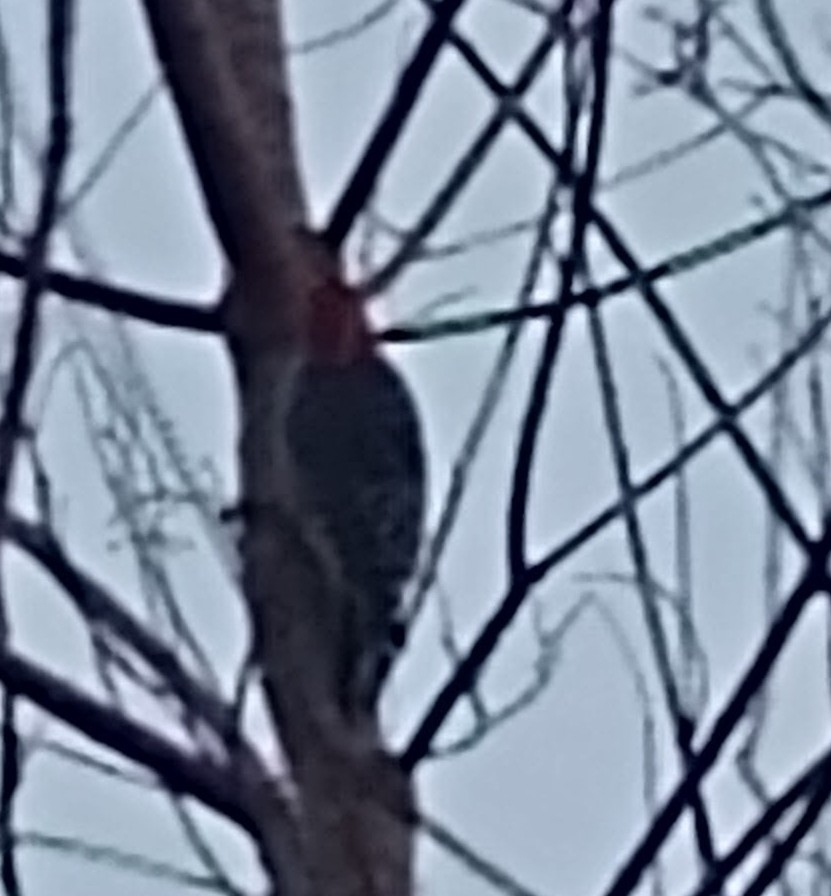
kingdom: Animalia
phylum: Chordata
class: Aves
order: Piciformes
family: Picidae
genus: Melanerpes
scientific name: Melanerpes carolinus
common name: Red-bellied woodpecker
